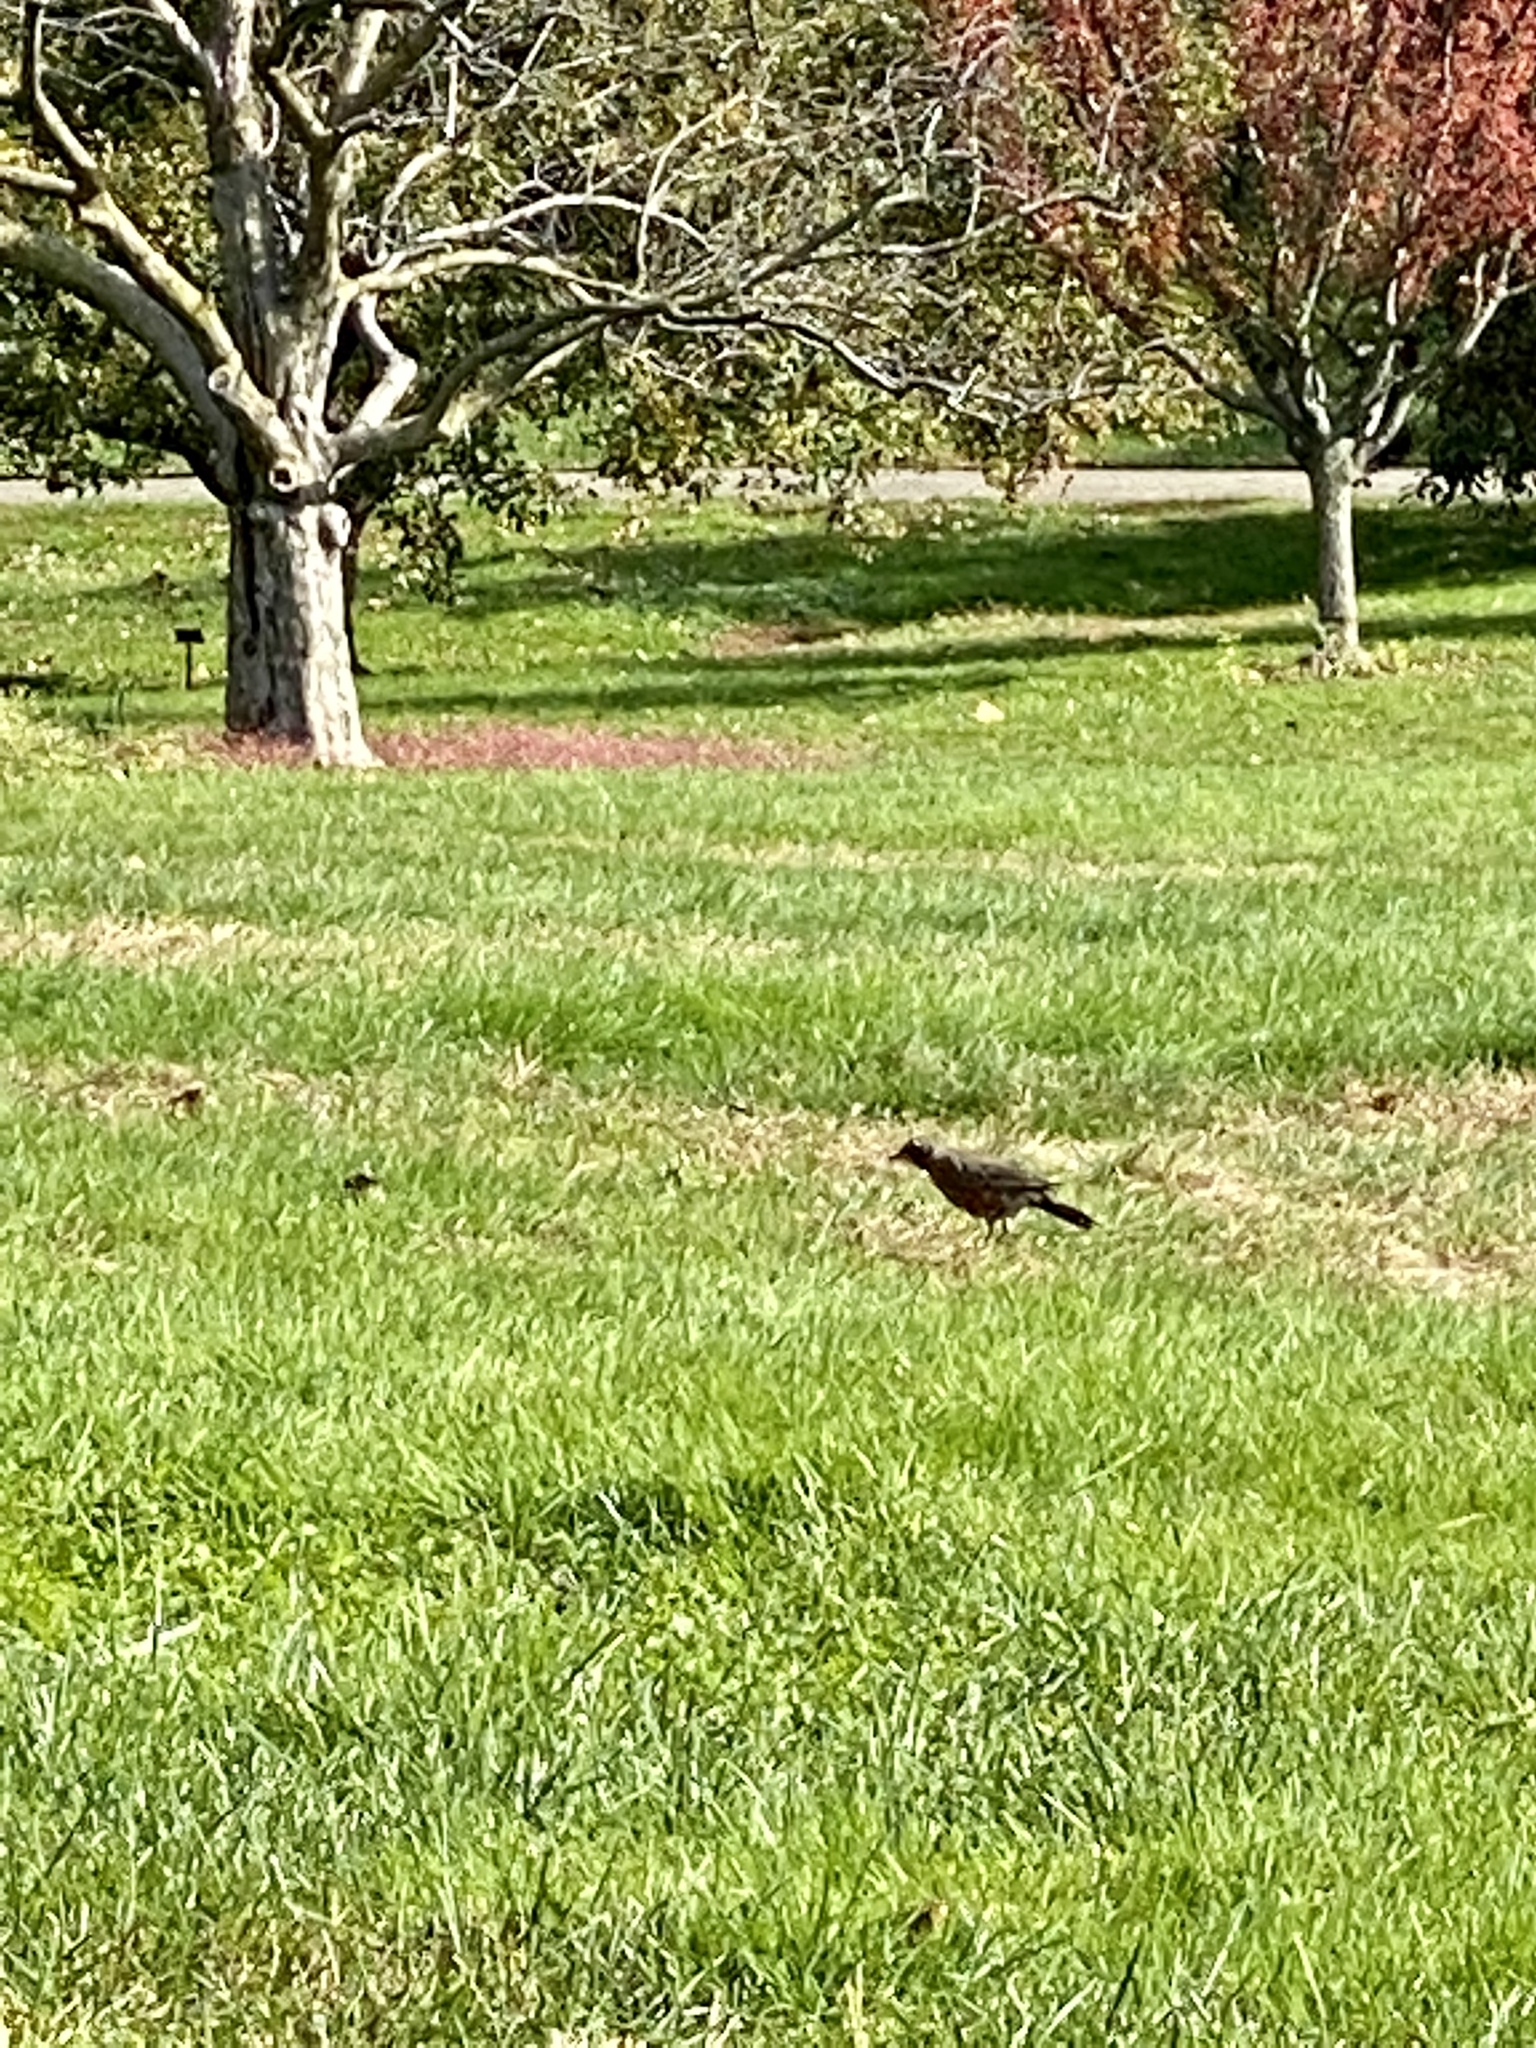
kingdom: Animalia
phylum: Chordata
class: Aves
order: Passeriformes
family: Turdidae
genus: Turdus
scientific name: Turdus migratorius
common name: American robin
